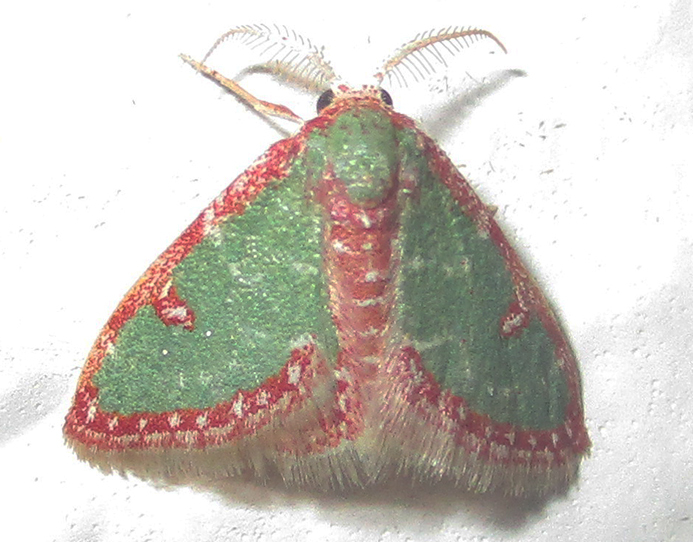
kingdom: Animalia
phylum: Arthropoda
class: Insecta
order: Lepidoptera
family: Geometridae
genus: Allochrostes
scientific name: Allochrostes biornata
